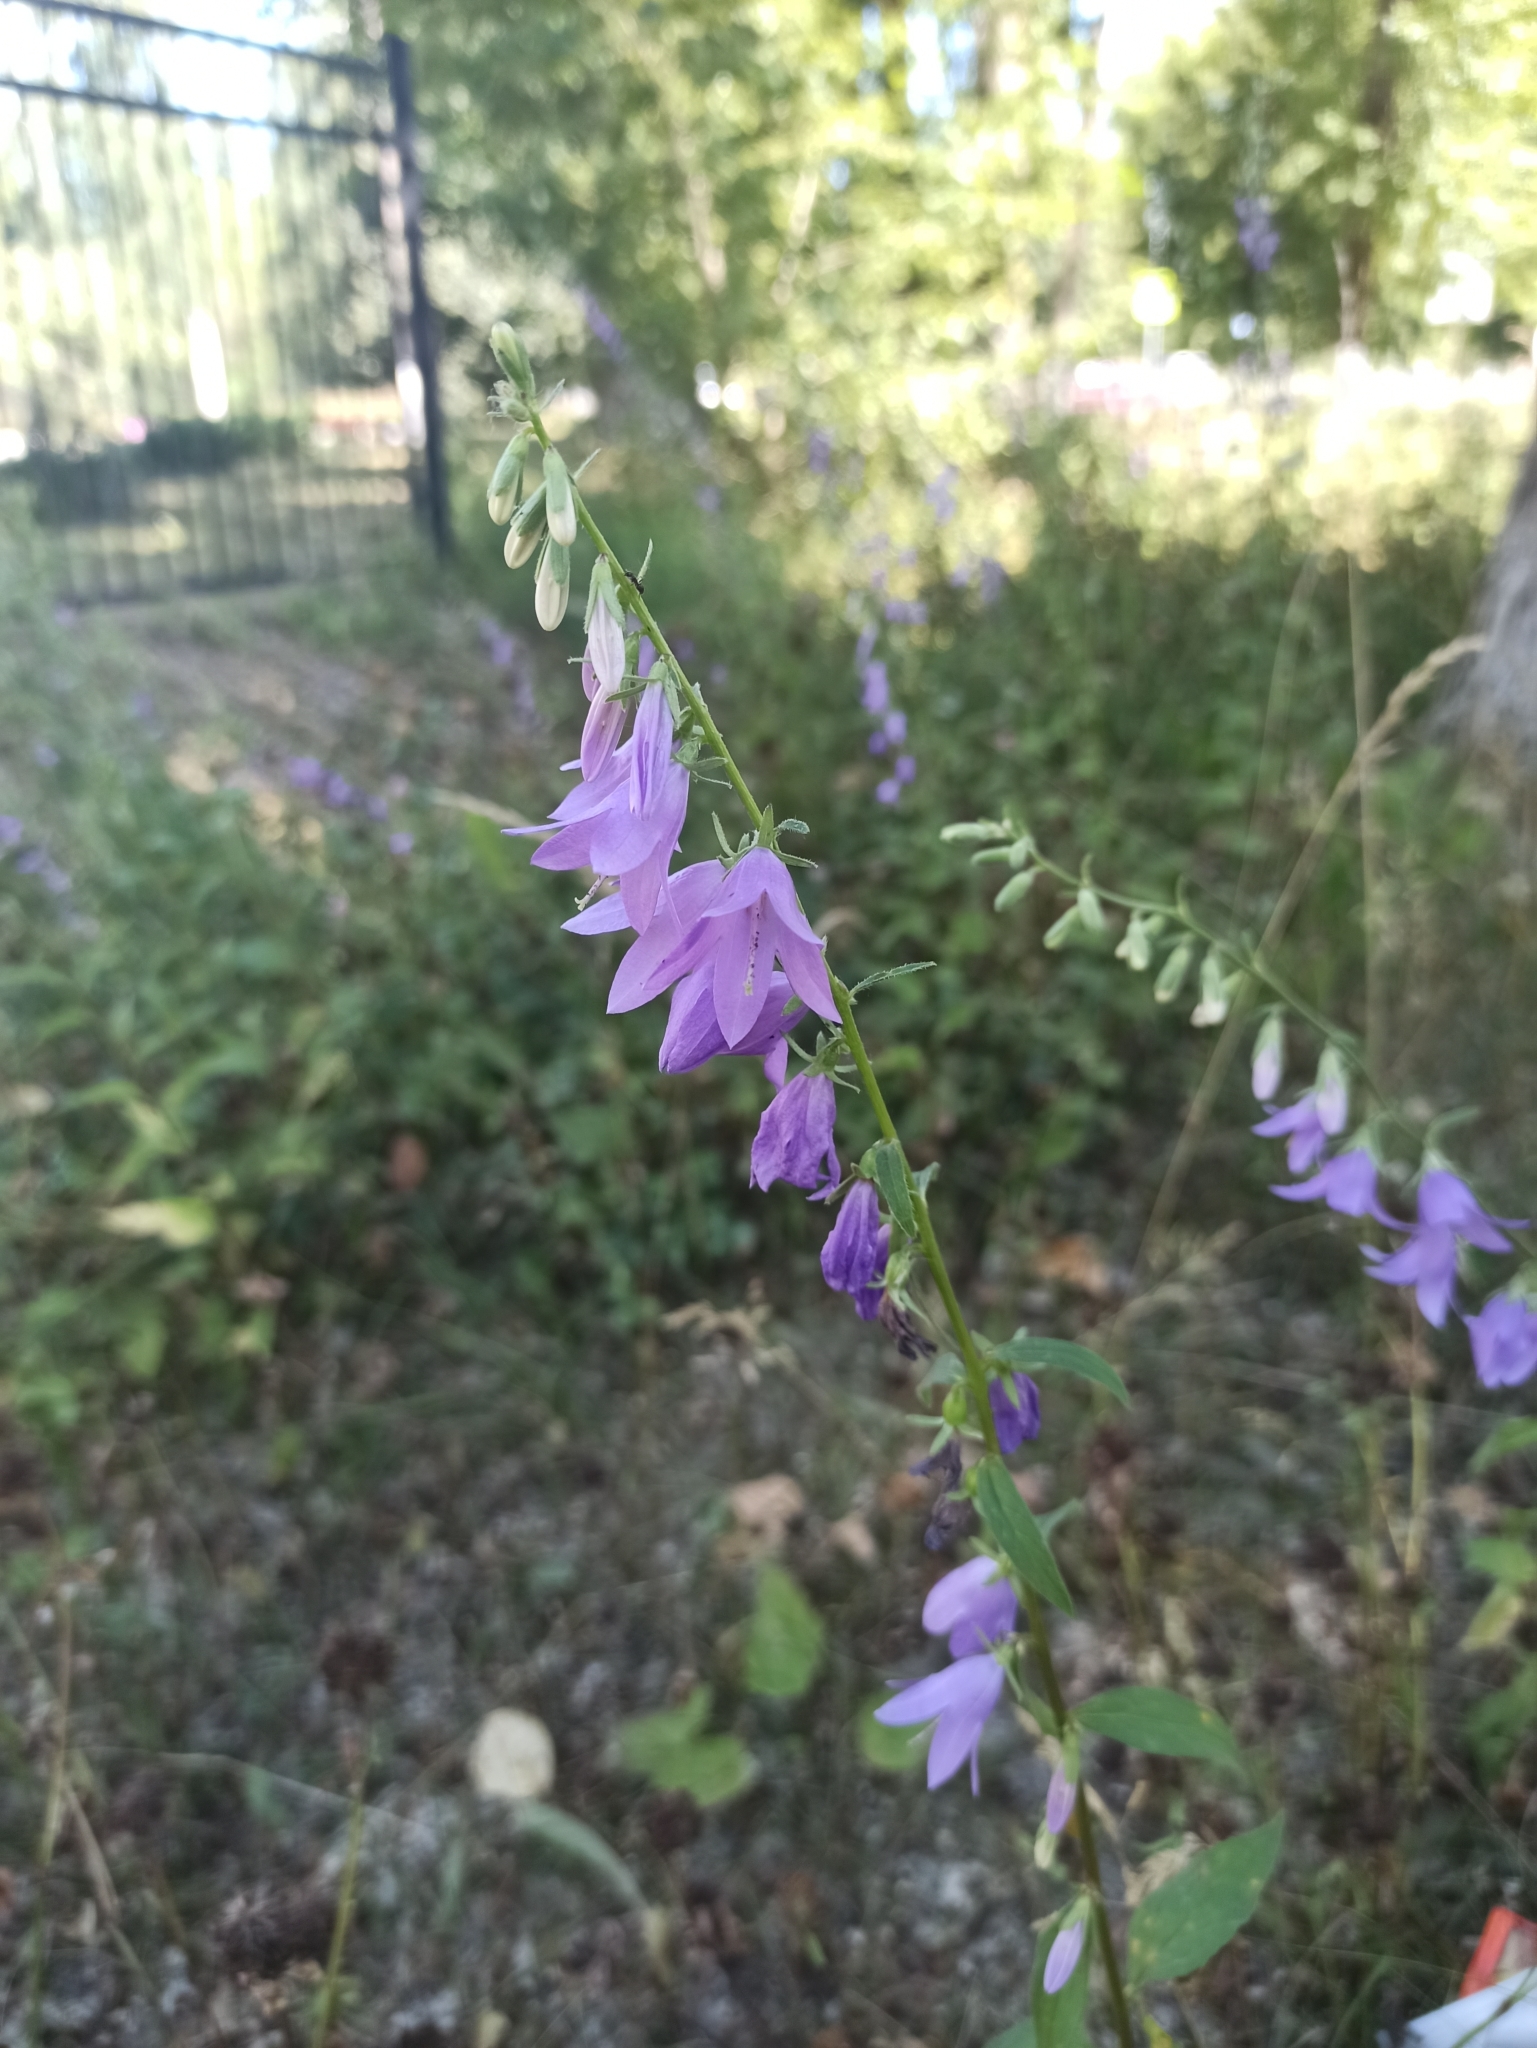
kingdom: Plantae
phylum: Tracheophyta
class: Magnoliopsida
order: Asterales
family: Campanulaceae
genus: Campanula
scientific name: Campanula rapunculoides
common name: Creeping bellflower
